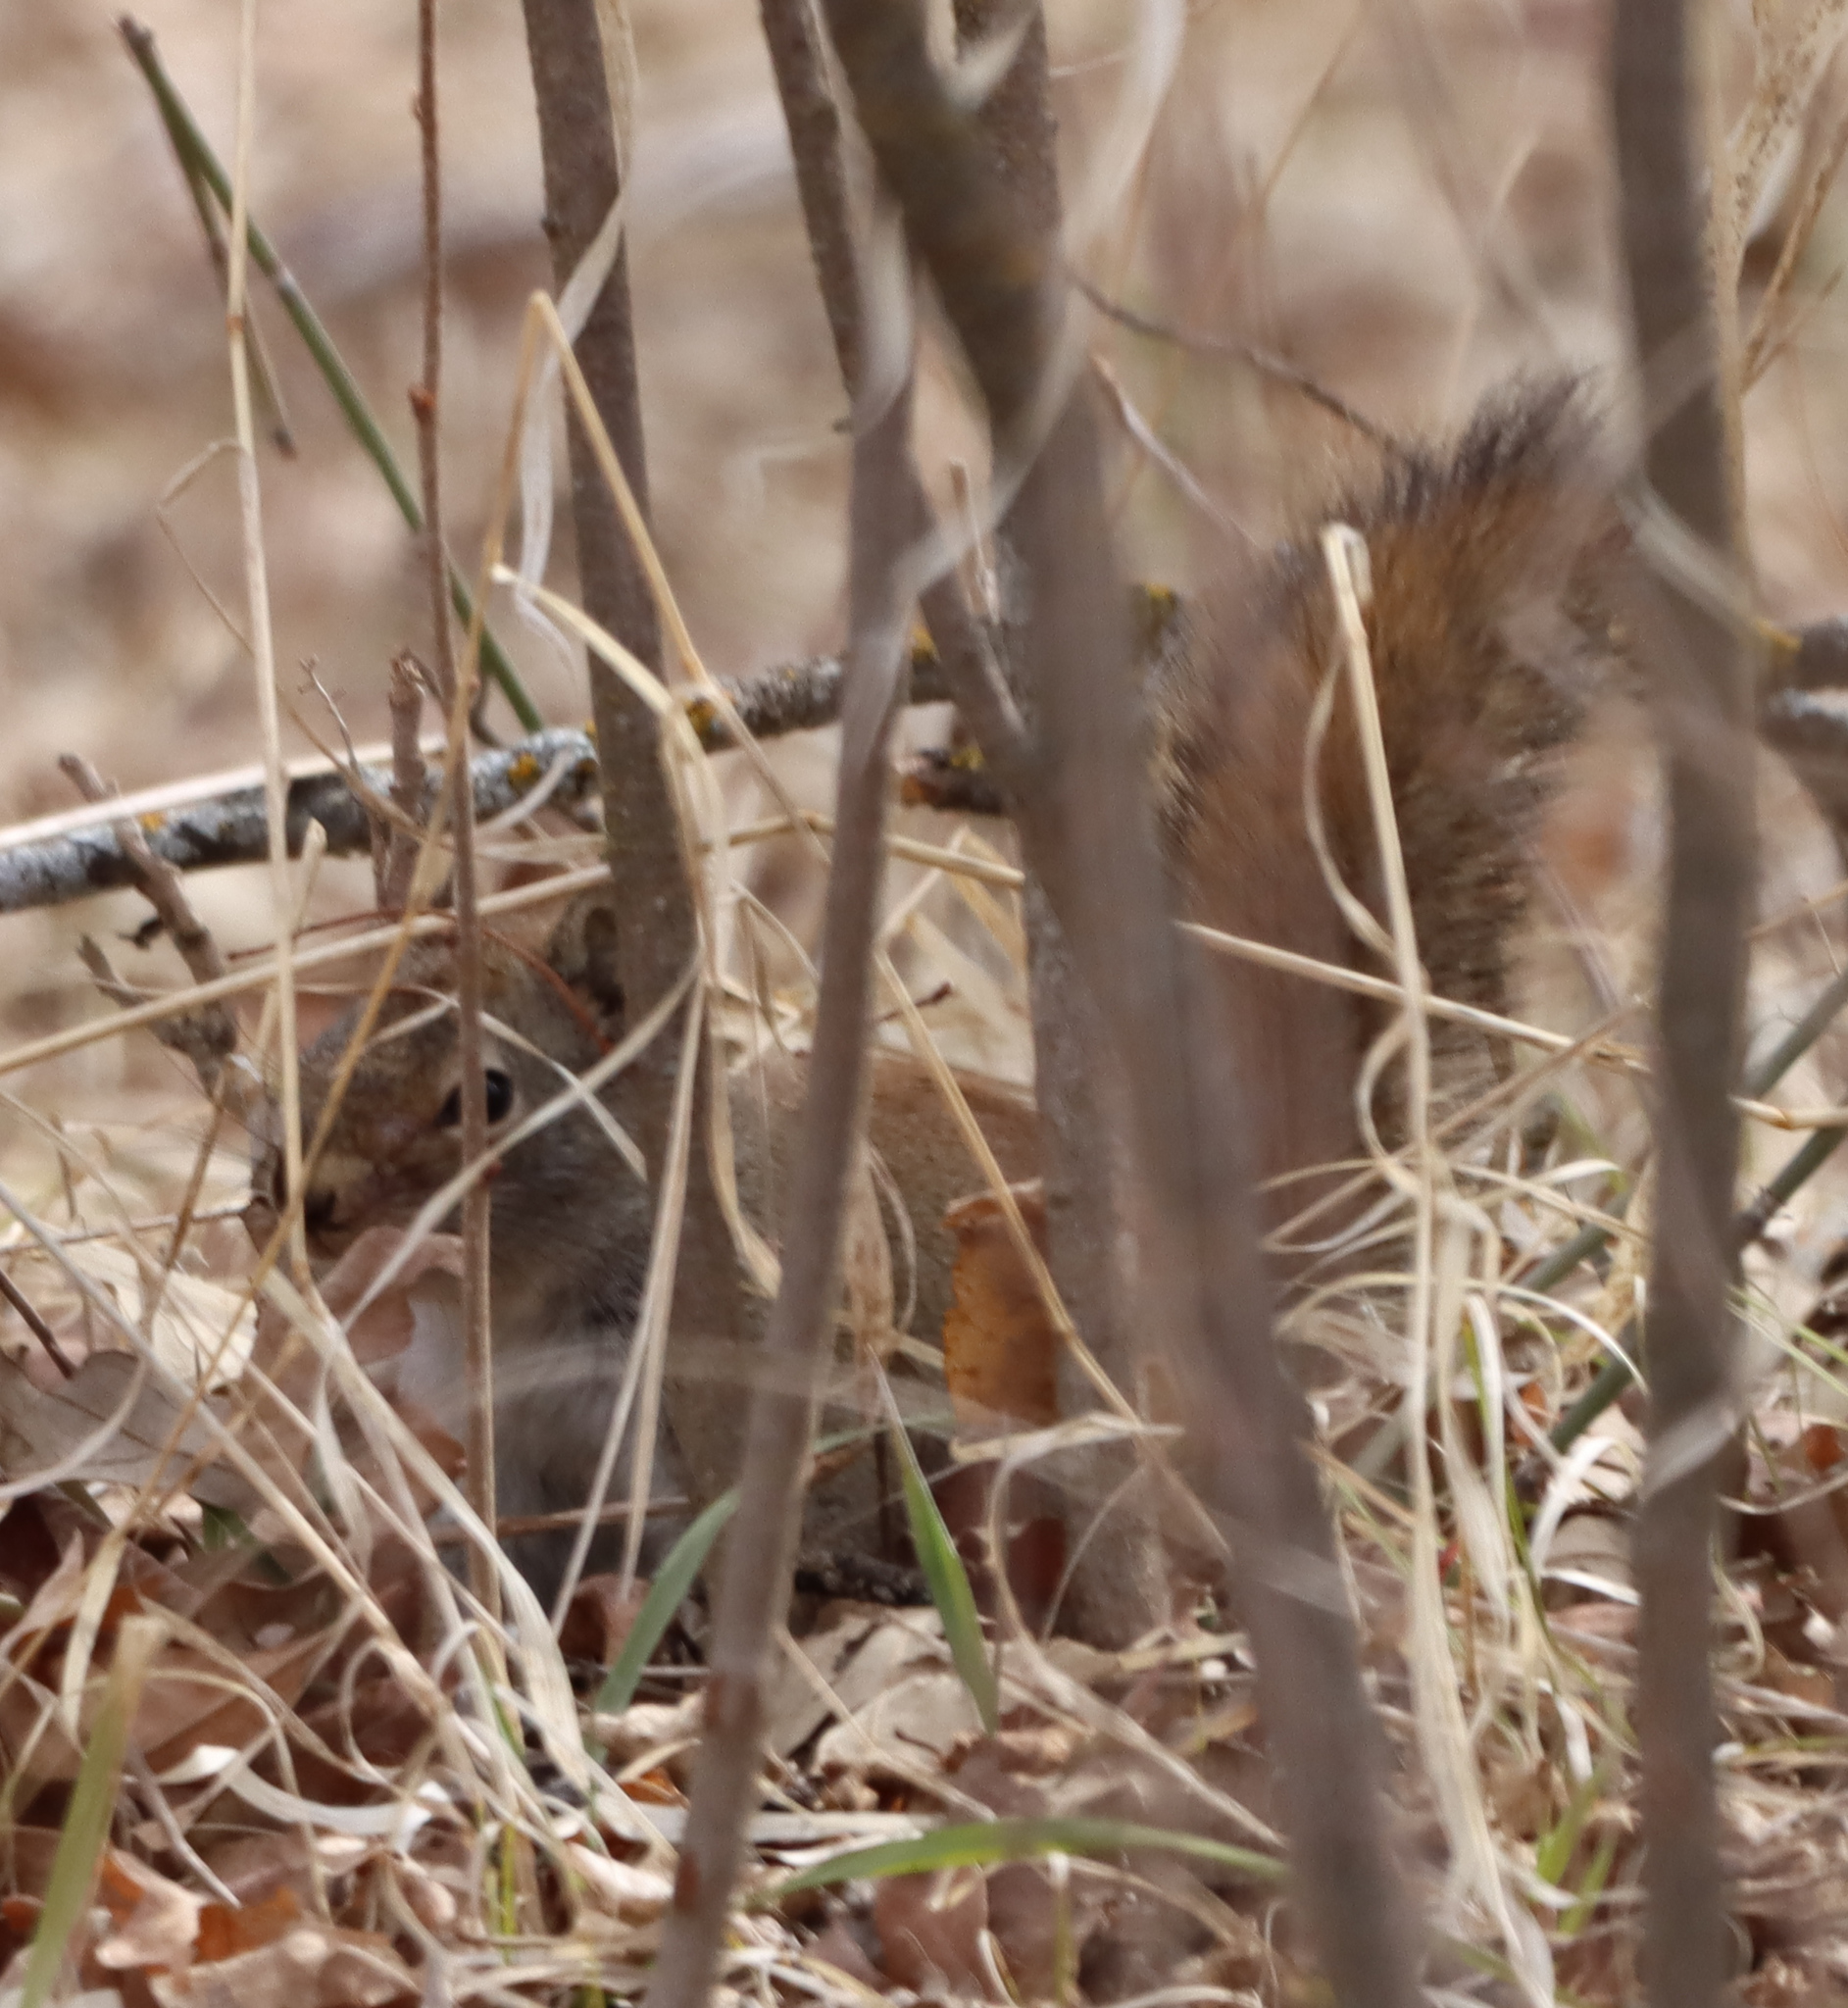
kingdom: Animalia
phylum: Chordata
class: Mammalia
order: Rodentia
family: Sciuridae
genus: Tamiasciurus
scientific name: Tamiasciurus hudsonicus
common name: Red squirrel
